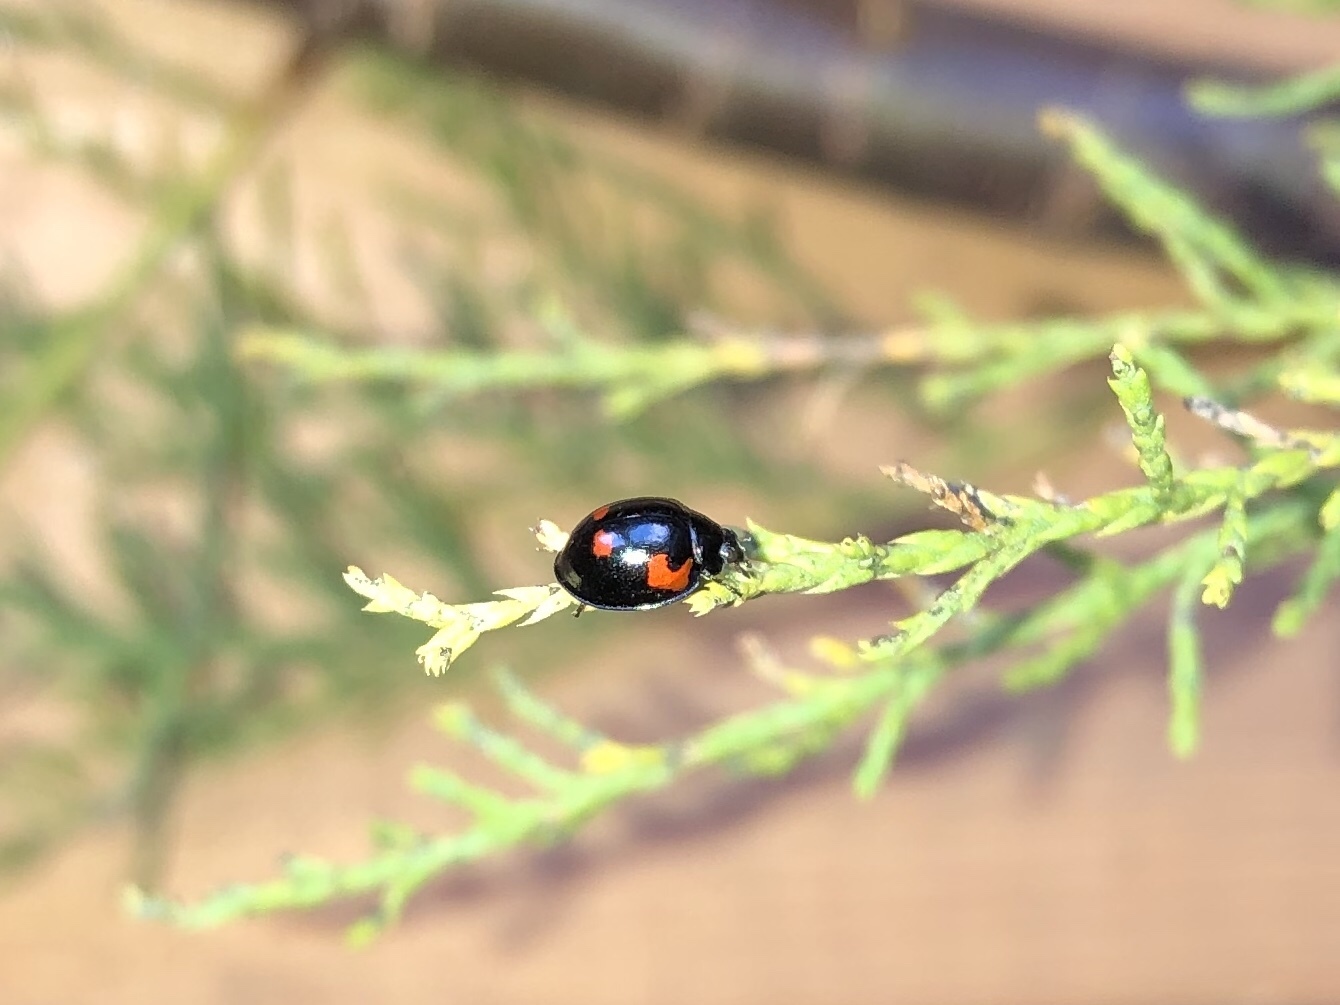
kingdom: Animalia
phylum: Arthropoda
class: Insecta
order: Coleoptera
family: Coccinellidae
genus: Brumus
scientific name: Brumus quadripustulatus
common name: Ladybird beetle
